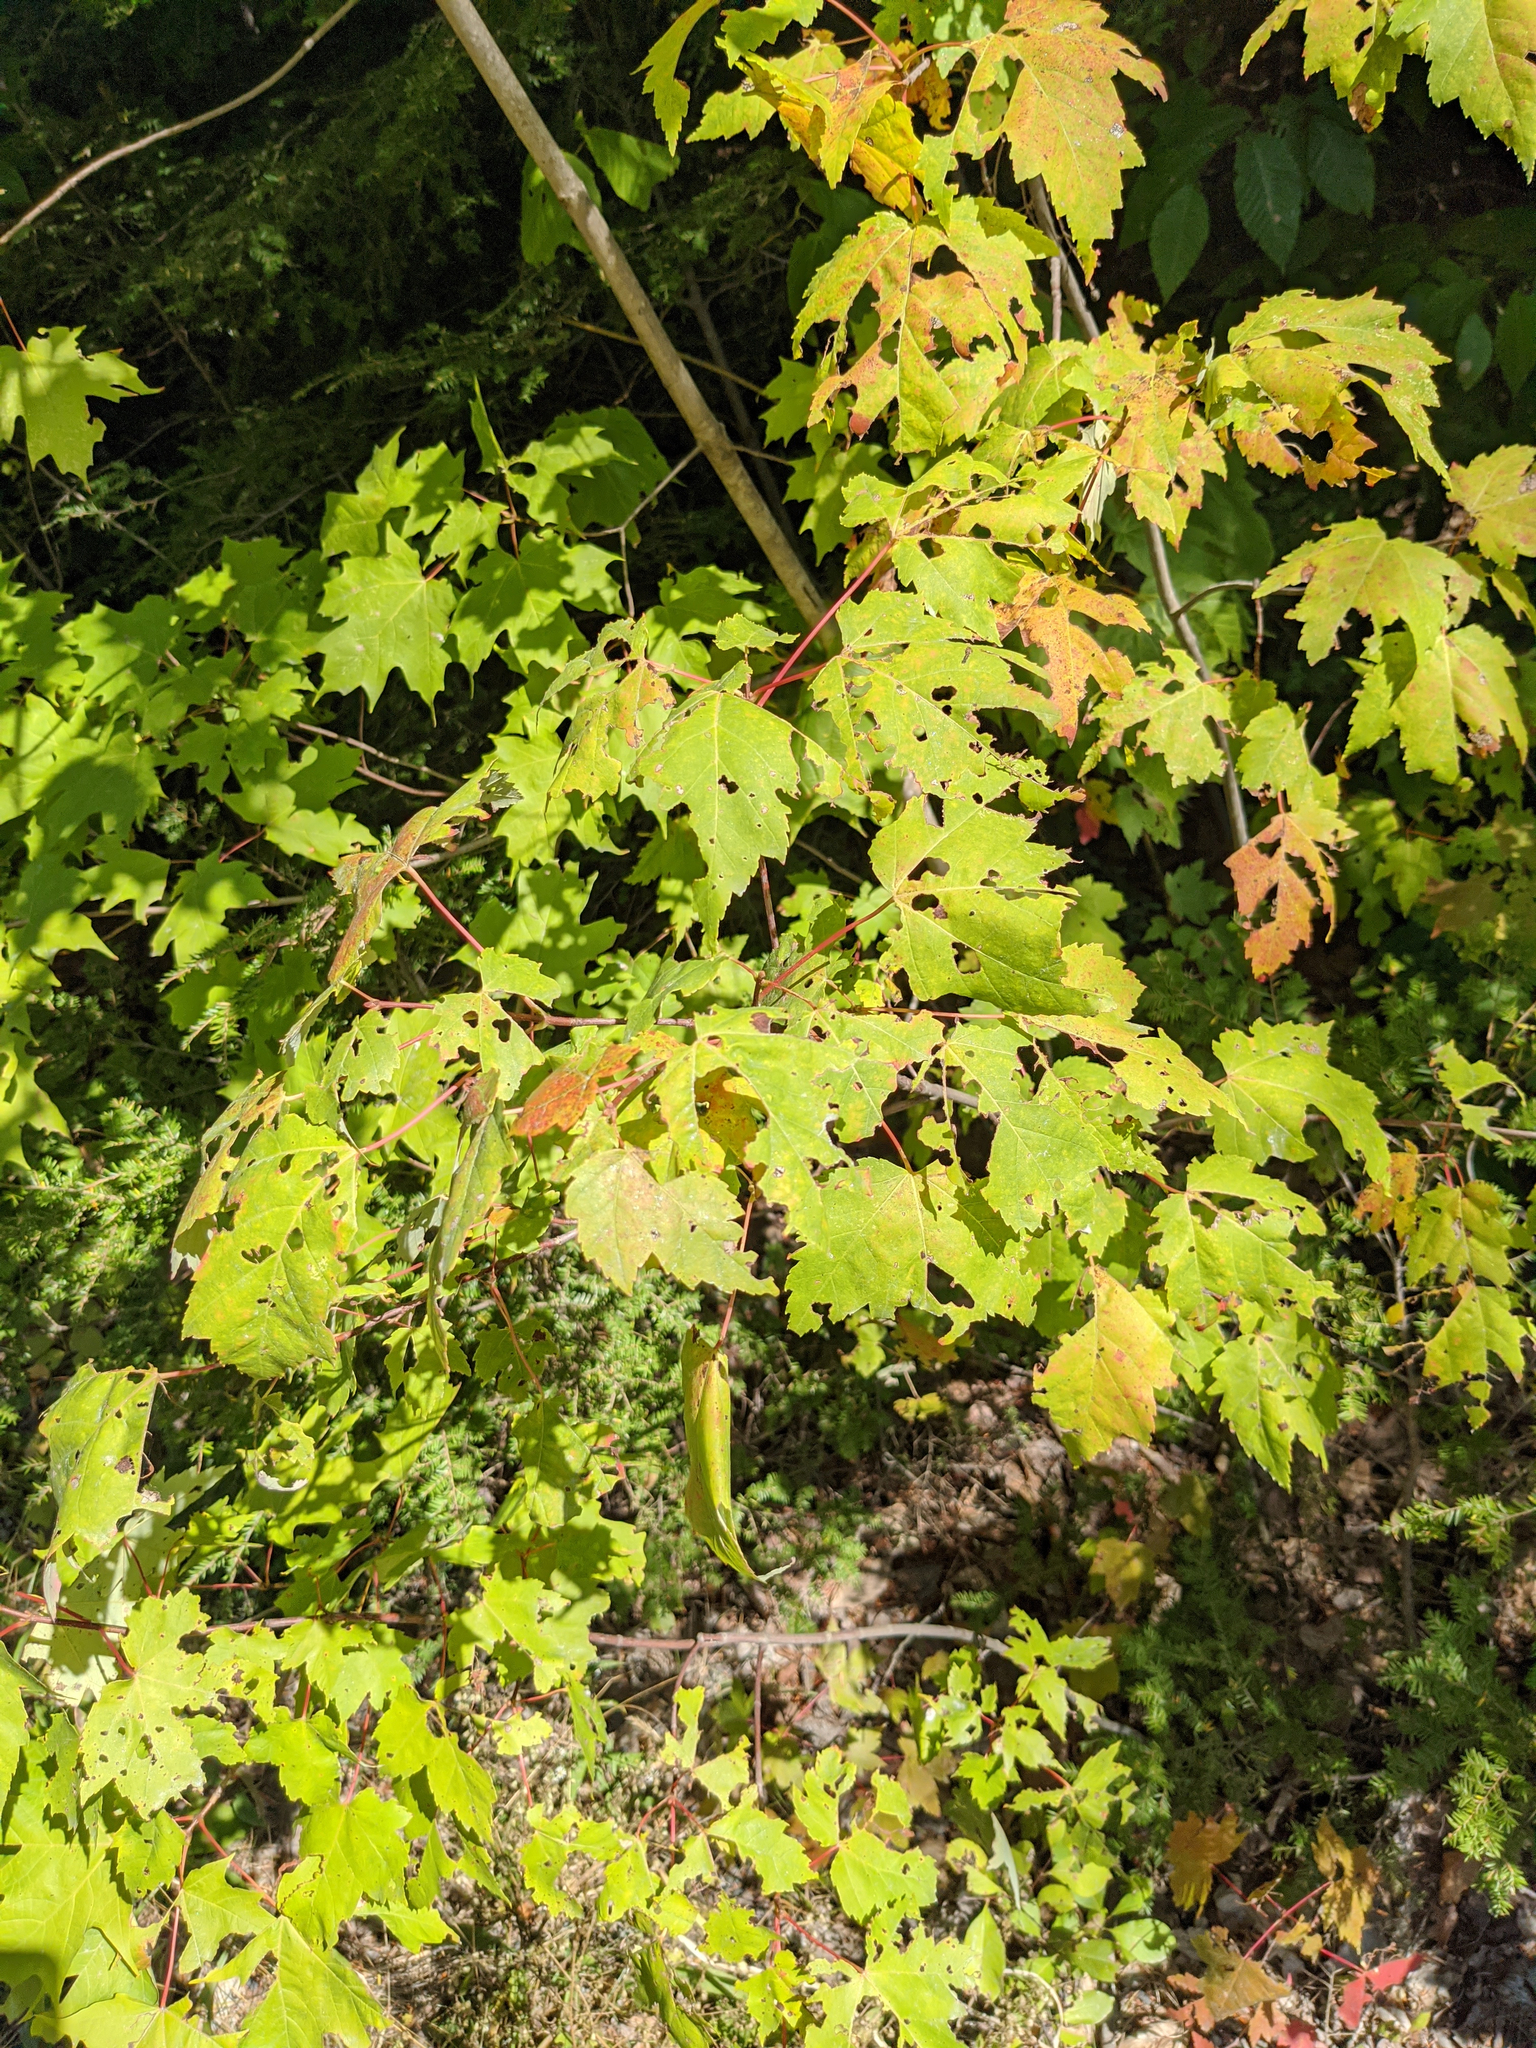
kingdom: Plantae
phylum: Tracheophyta
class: Magnoliopsida
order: Sapindales
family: Sapindaceae
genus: Acer
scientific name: Acer rubrum
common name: Red maple
